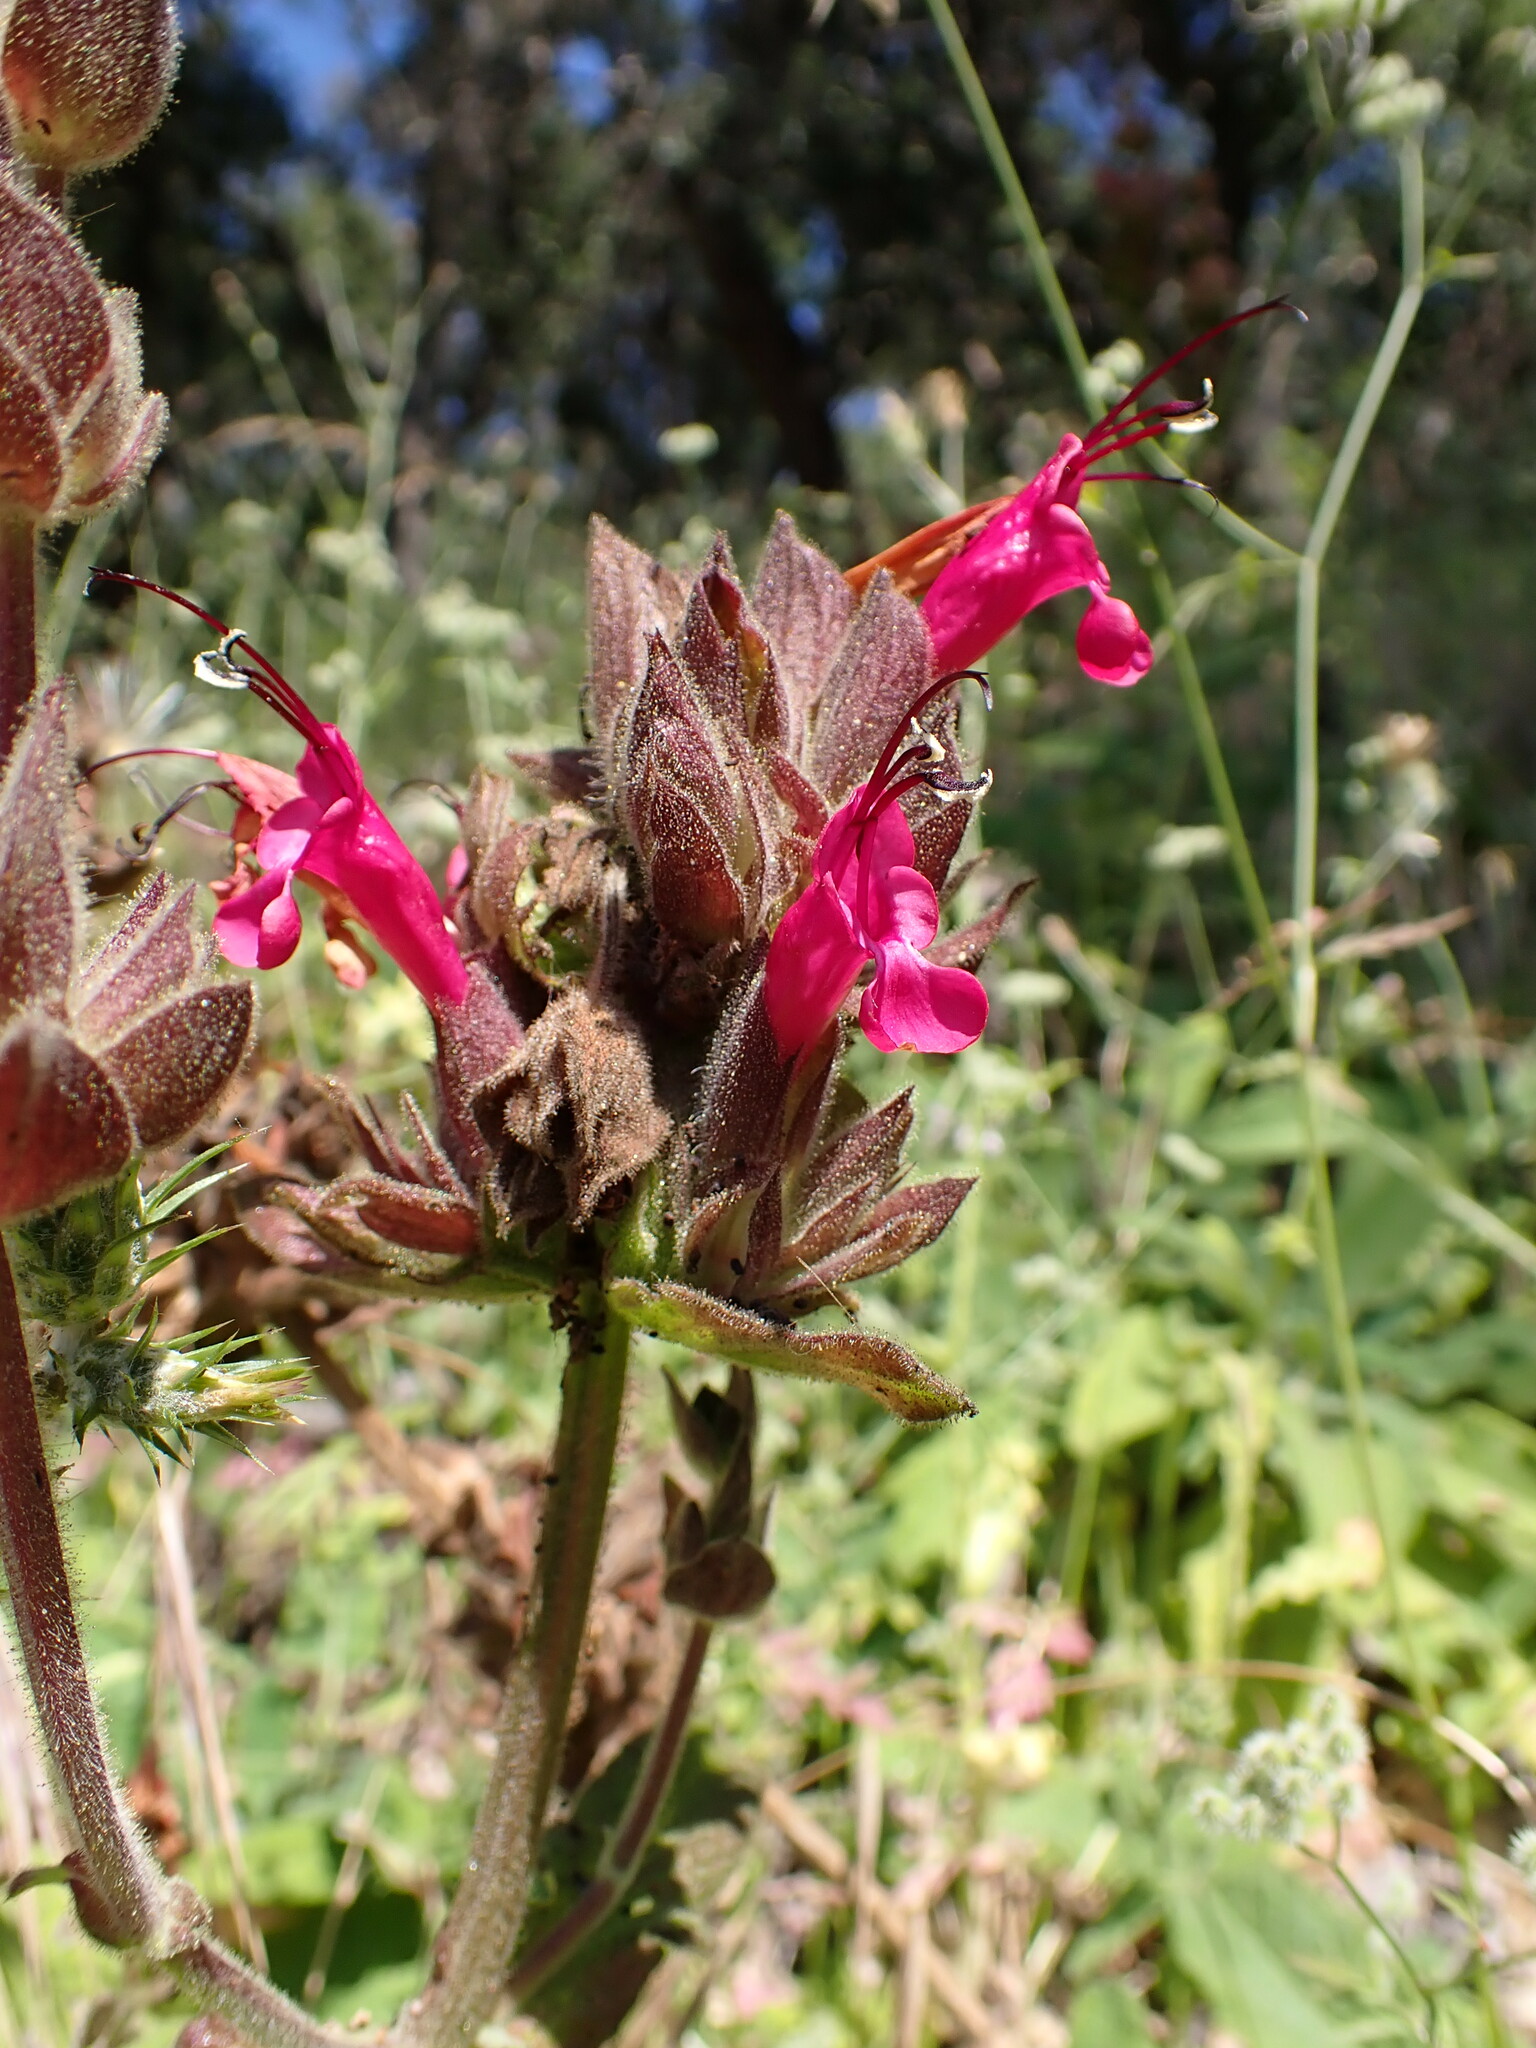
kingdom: Plantae
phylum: Tracheophyta
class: Magnoliopsida
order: Lamiales
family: Lamiaceae
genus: Salvia
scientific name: Salvia spathacea
